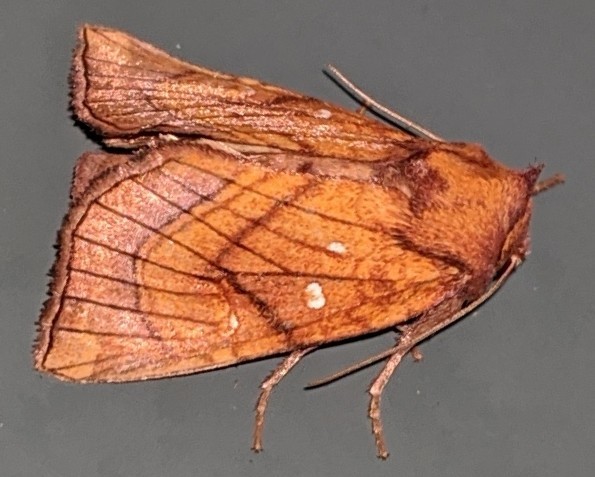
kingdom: Animalia
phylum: Arthropoda
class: Insecta
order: Lepidoptera
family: Noctuidae
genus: Papaipema
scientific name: Papaipema inquaesita
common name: Sensitive fern borer moth
